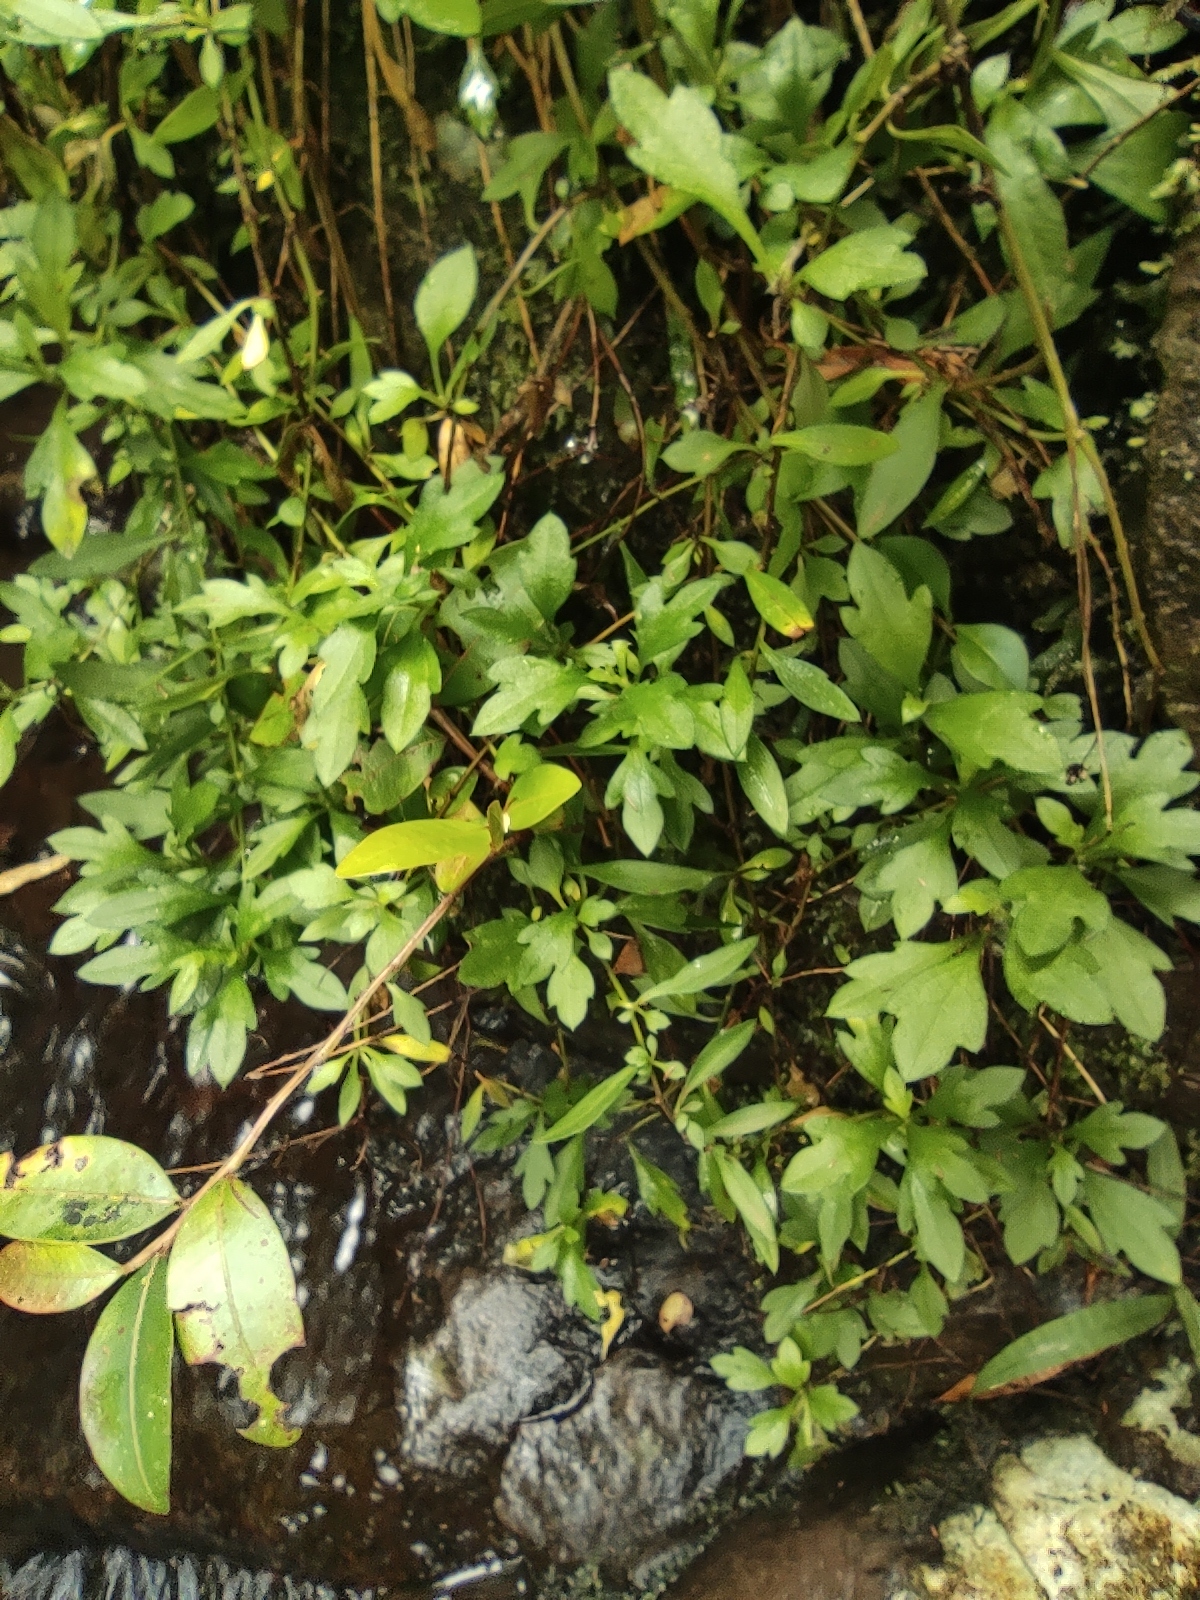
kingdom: Plantae
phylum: Tracheophyta
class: Magnoliopsida
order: Asterales
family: Asteraceae
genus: Erigeron
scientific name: Erigeron karvinskianus
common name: Mexican fleabane
